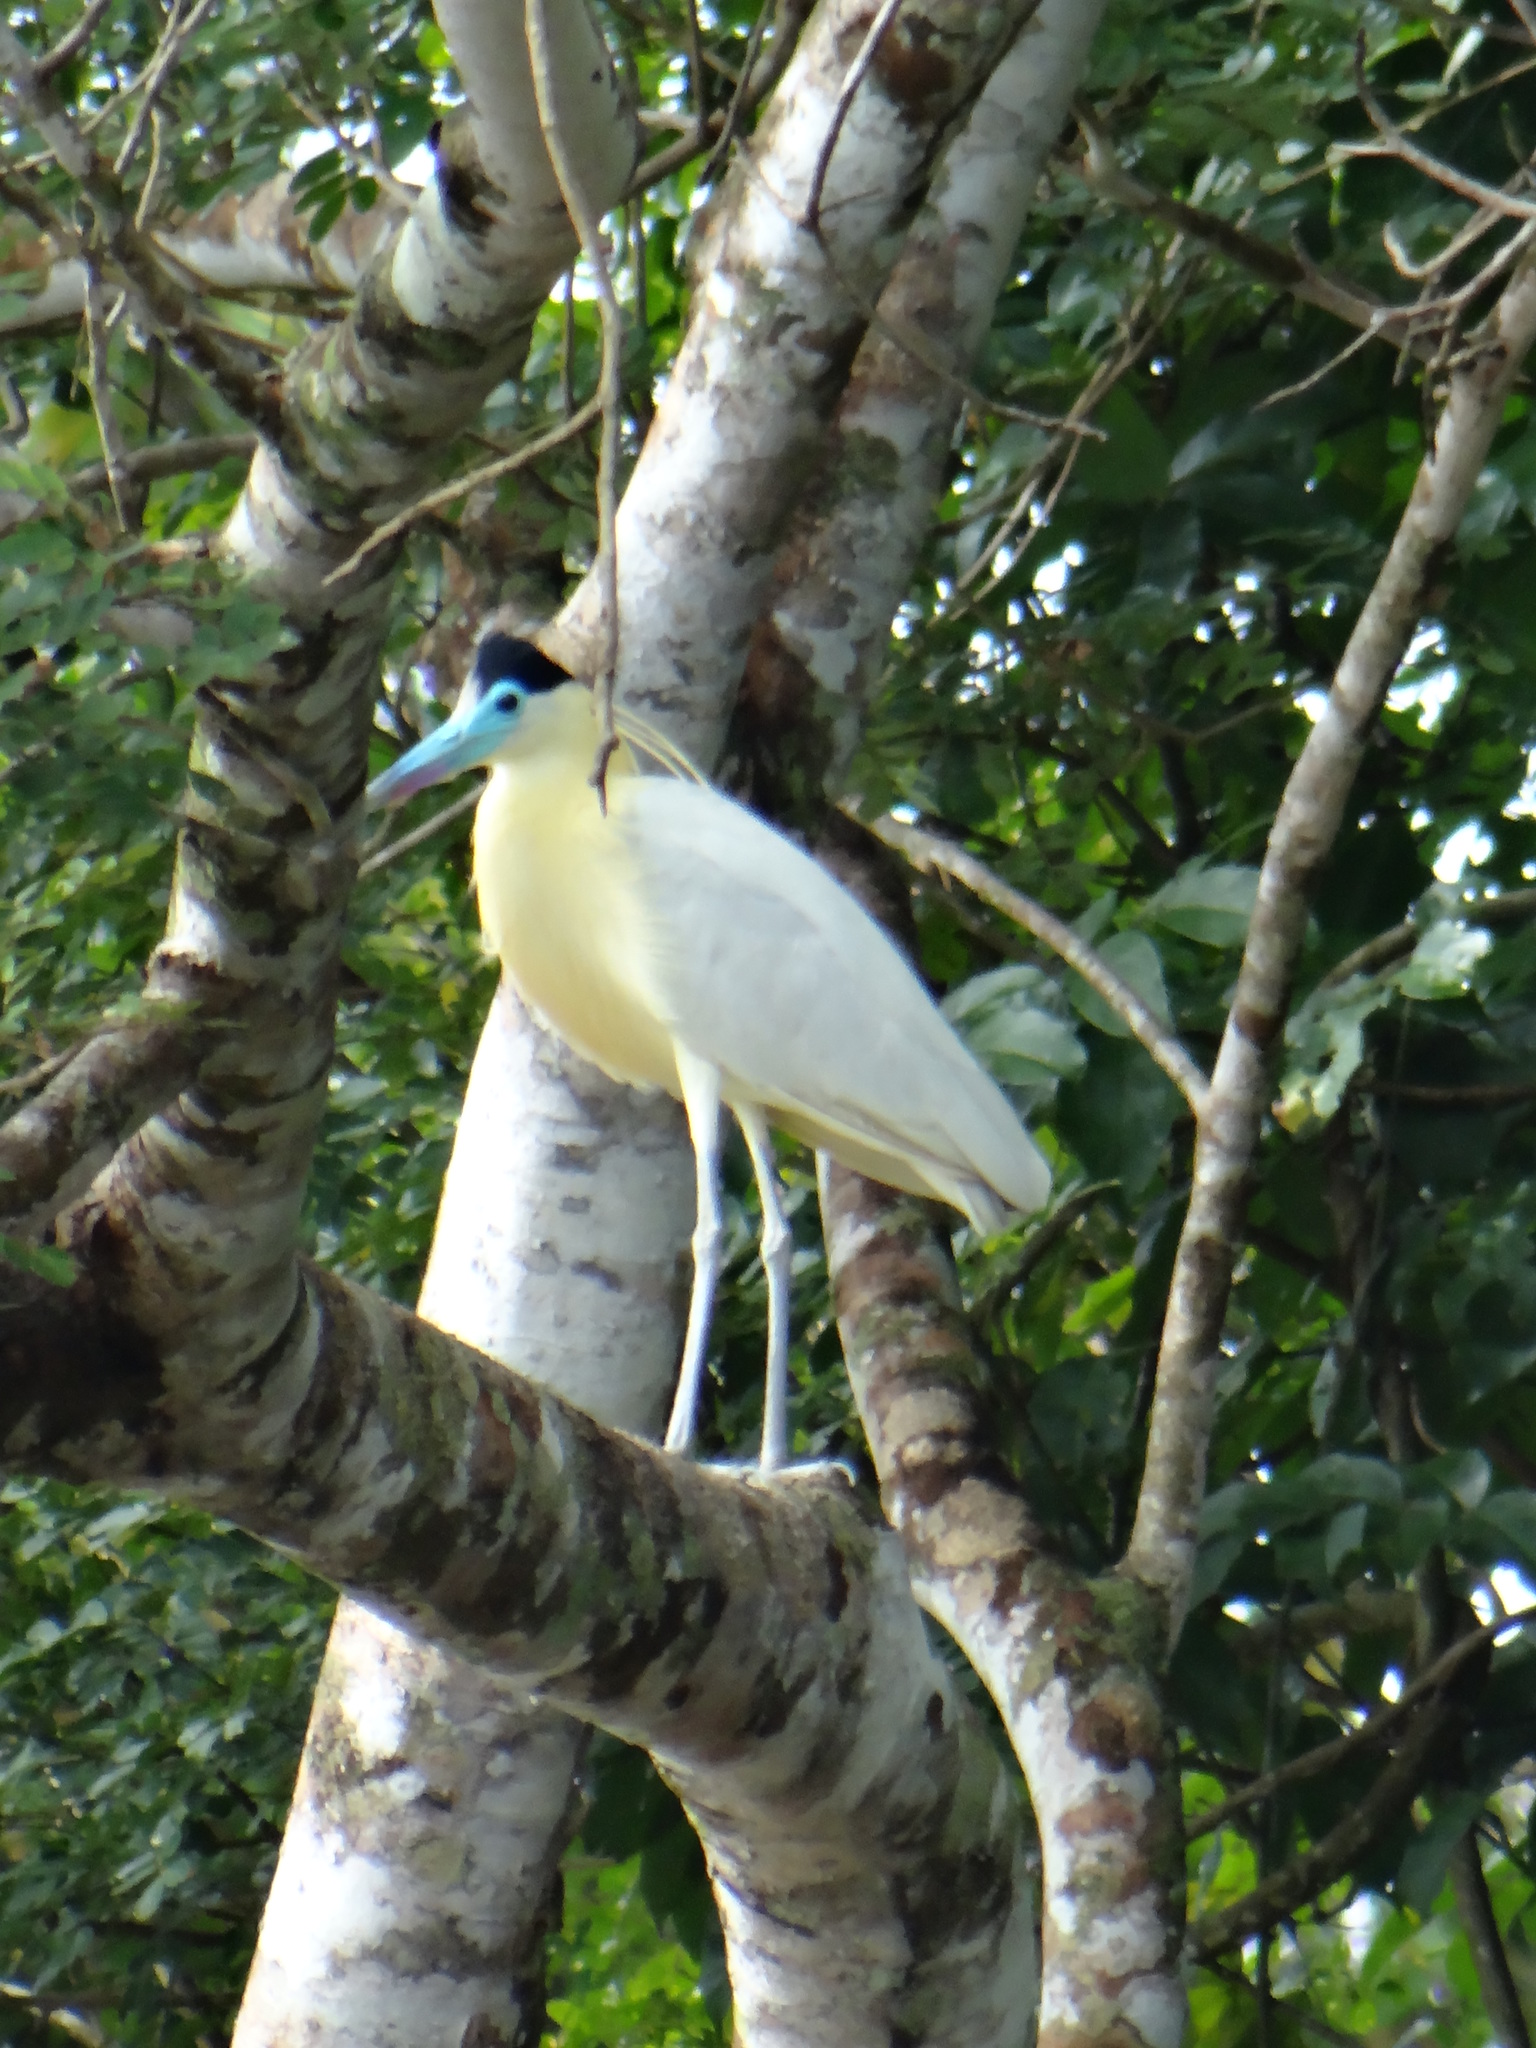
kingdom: Animalia
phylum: Chordata
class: Aves
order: Pelecaniformes
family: Ardeidae
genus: Pilherodius
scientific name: Pilherodius pileatus
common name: Capped heron
